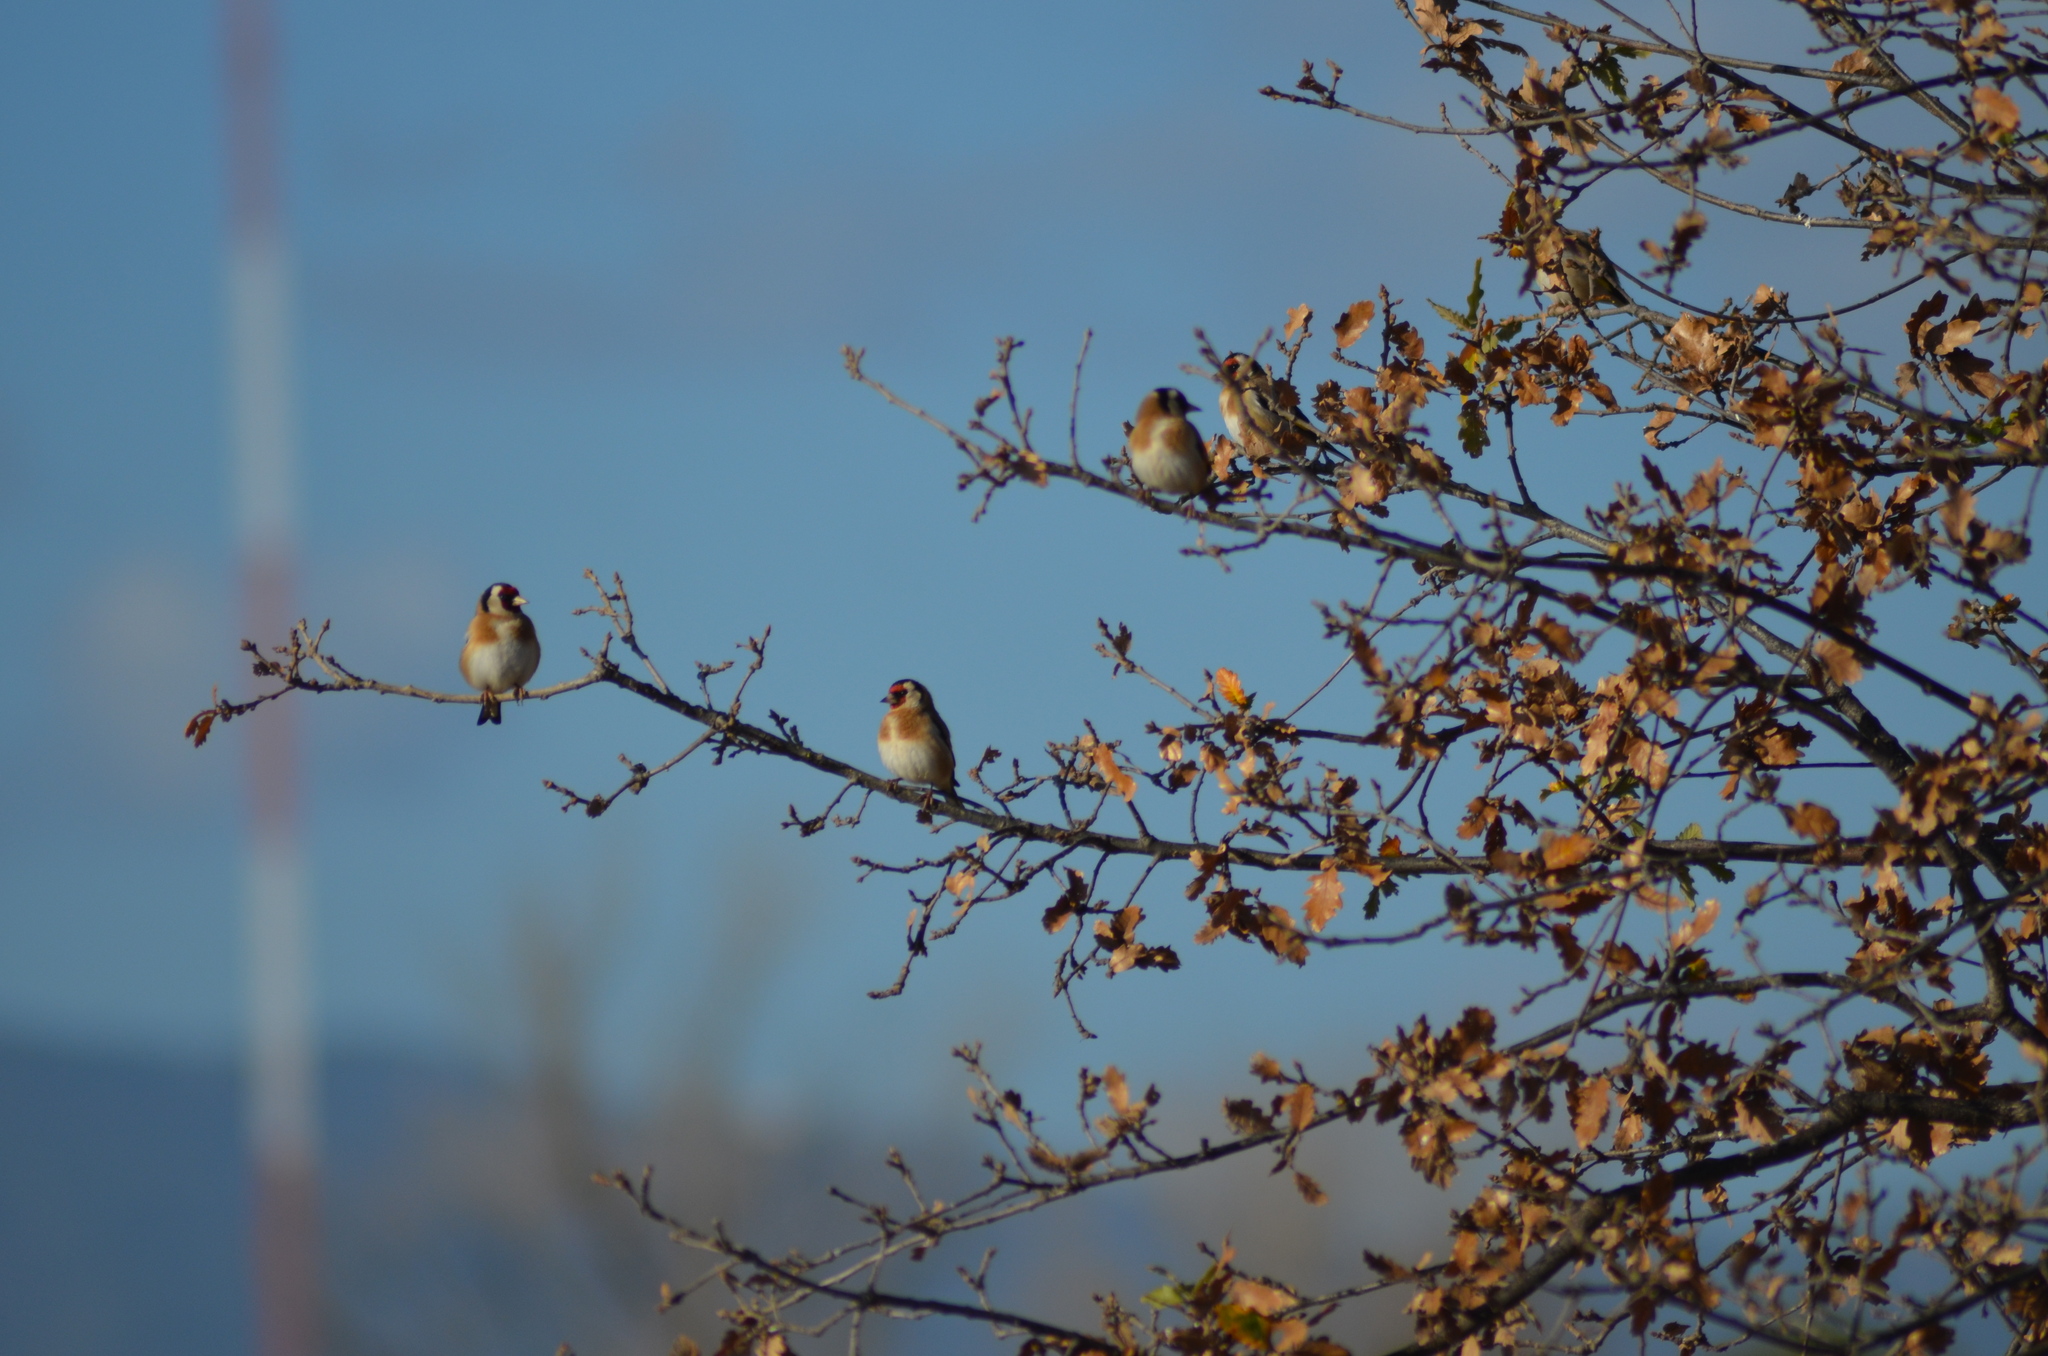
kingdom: Animalia
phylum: Chordata
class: Aves
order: Passeriformes
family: Fringillidae
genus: Carduelis
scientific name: Carduelis carduelis
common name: European goldfinch
